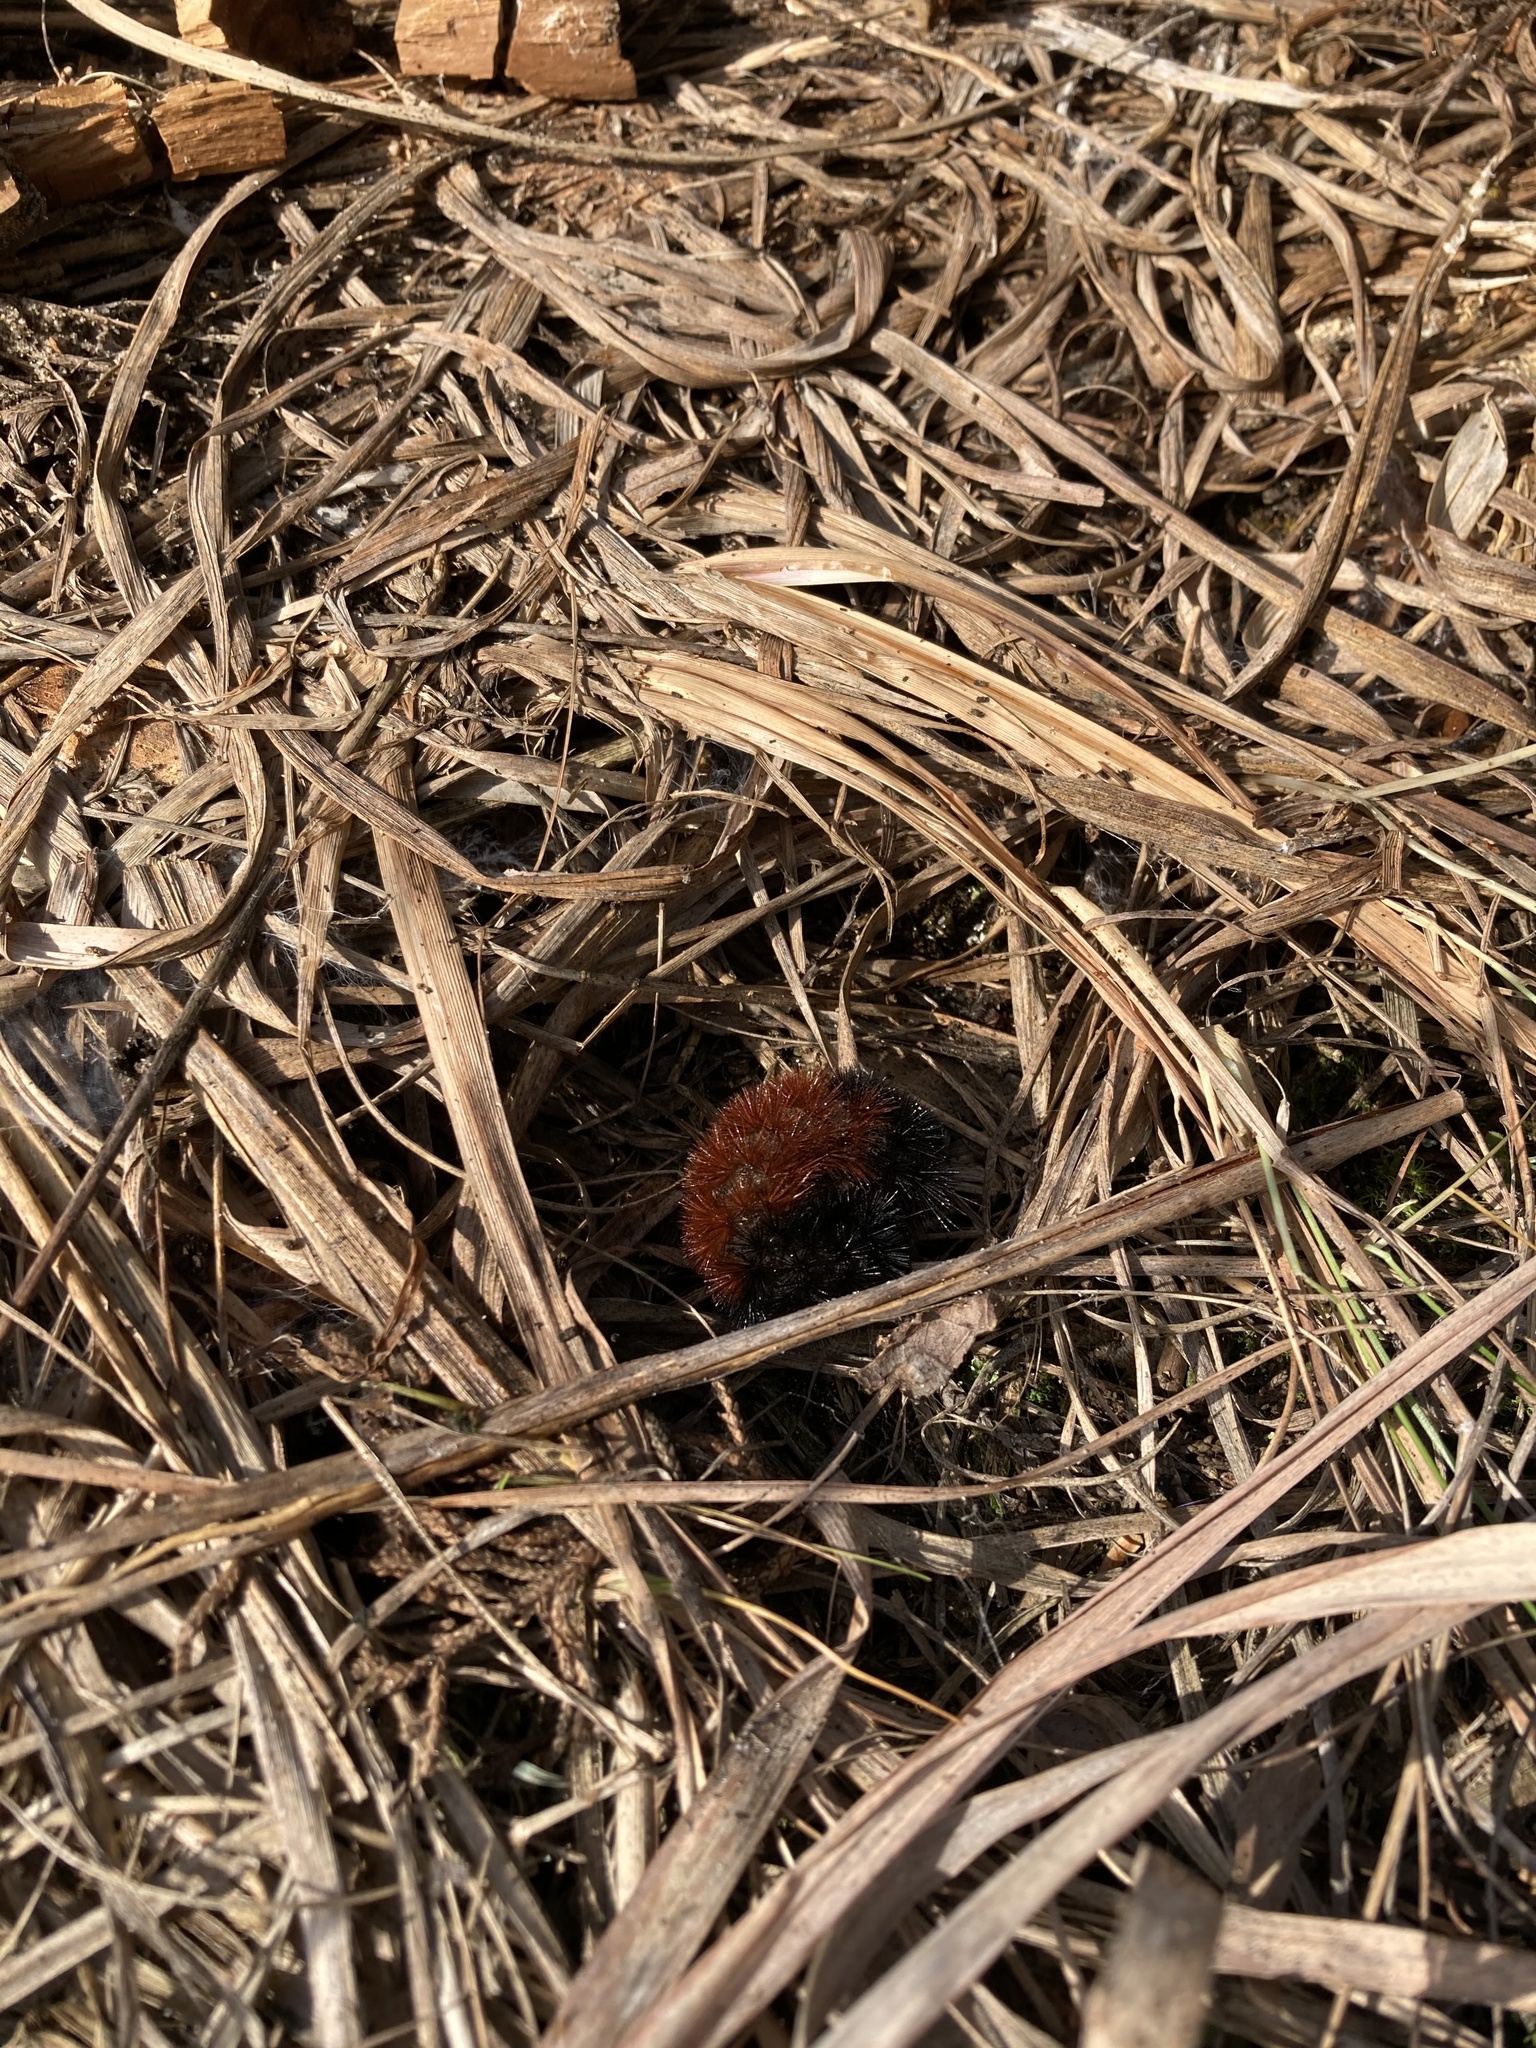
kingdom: Animalia
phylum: Arthropoda
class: Insecta
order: Lepidoptera
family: Erebidae
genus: Pyrrharctia
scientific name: Pyrrharctia isabella
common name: Isabella tiger moth
